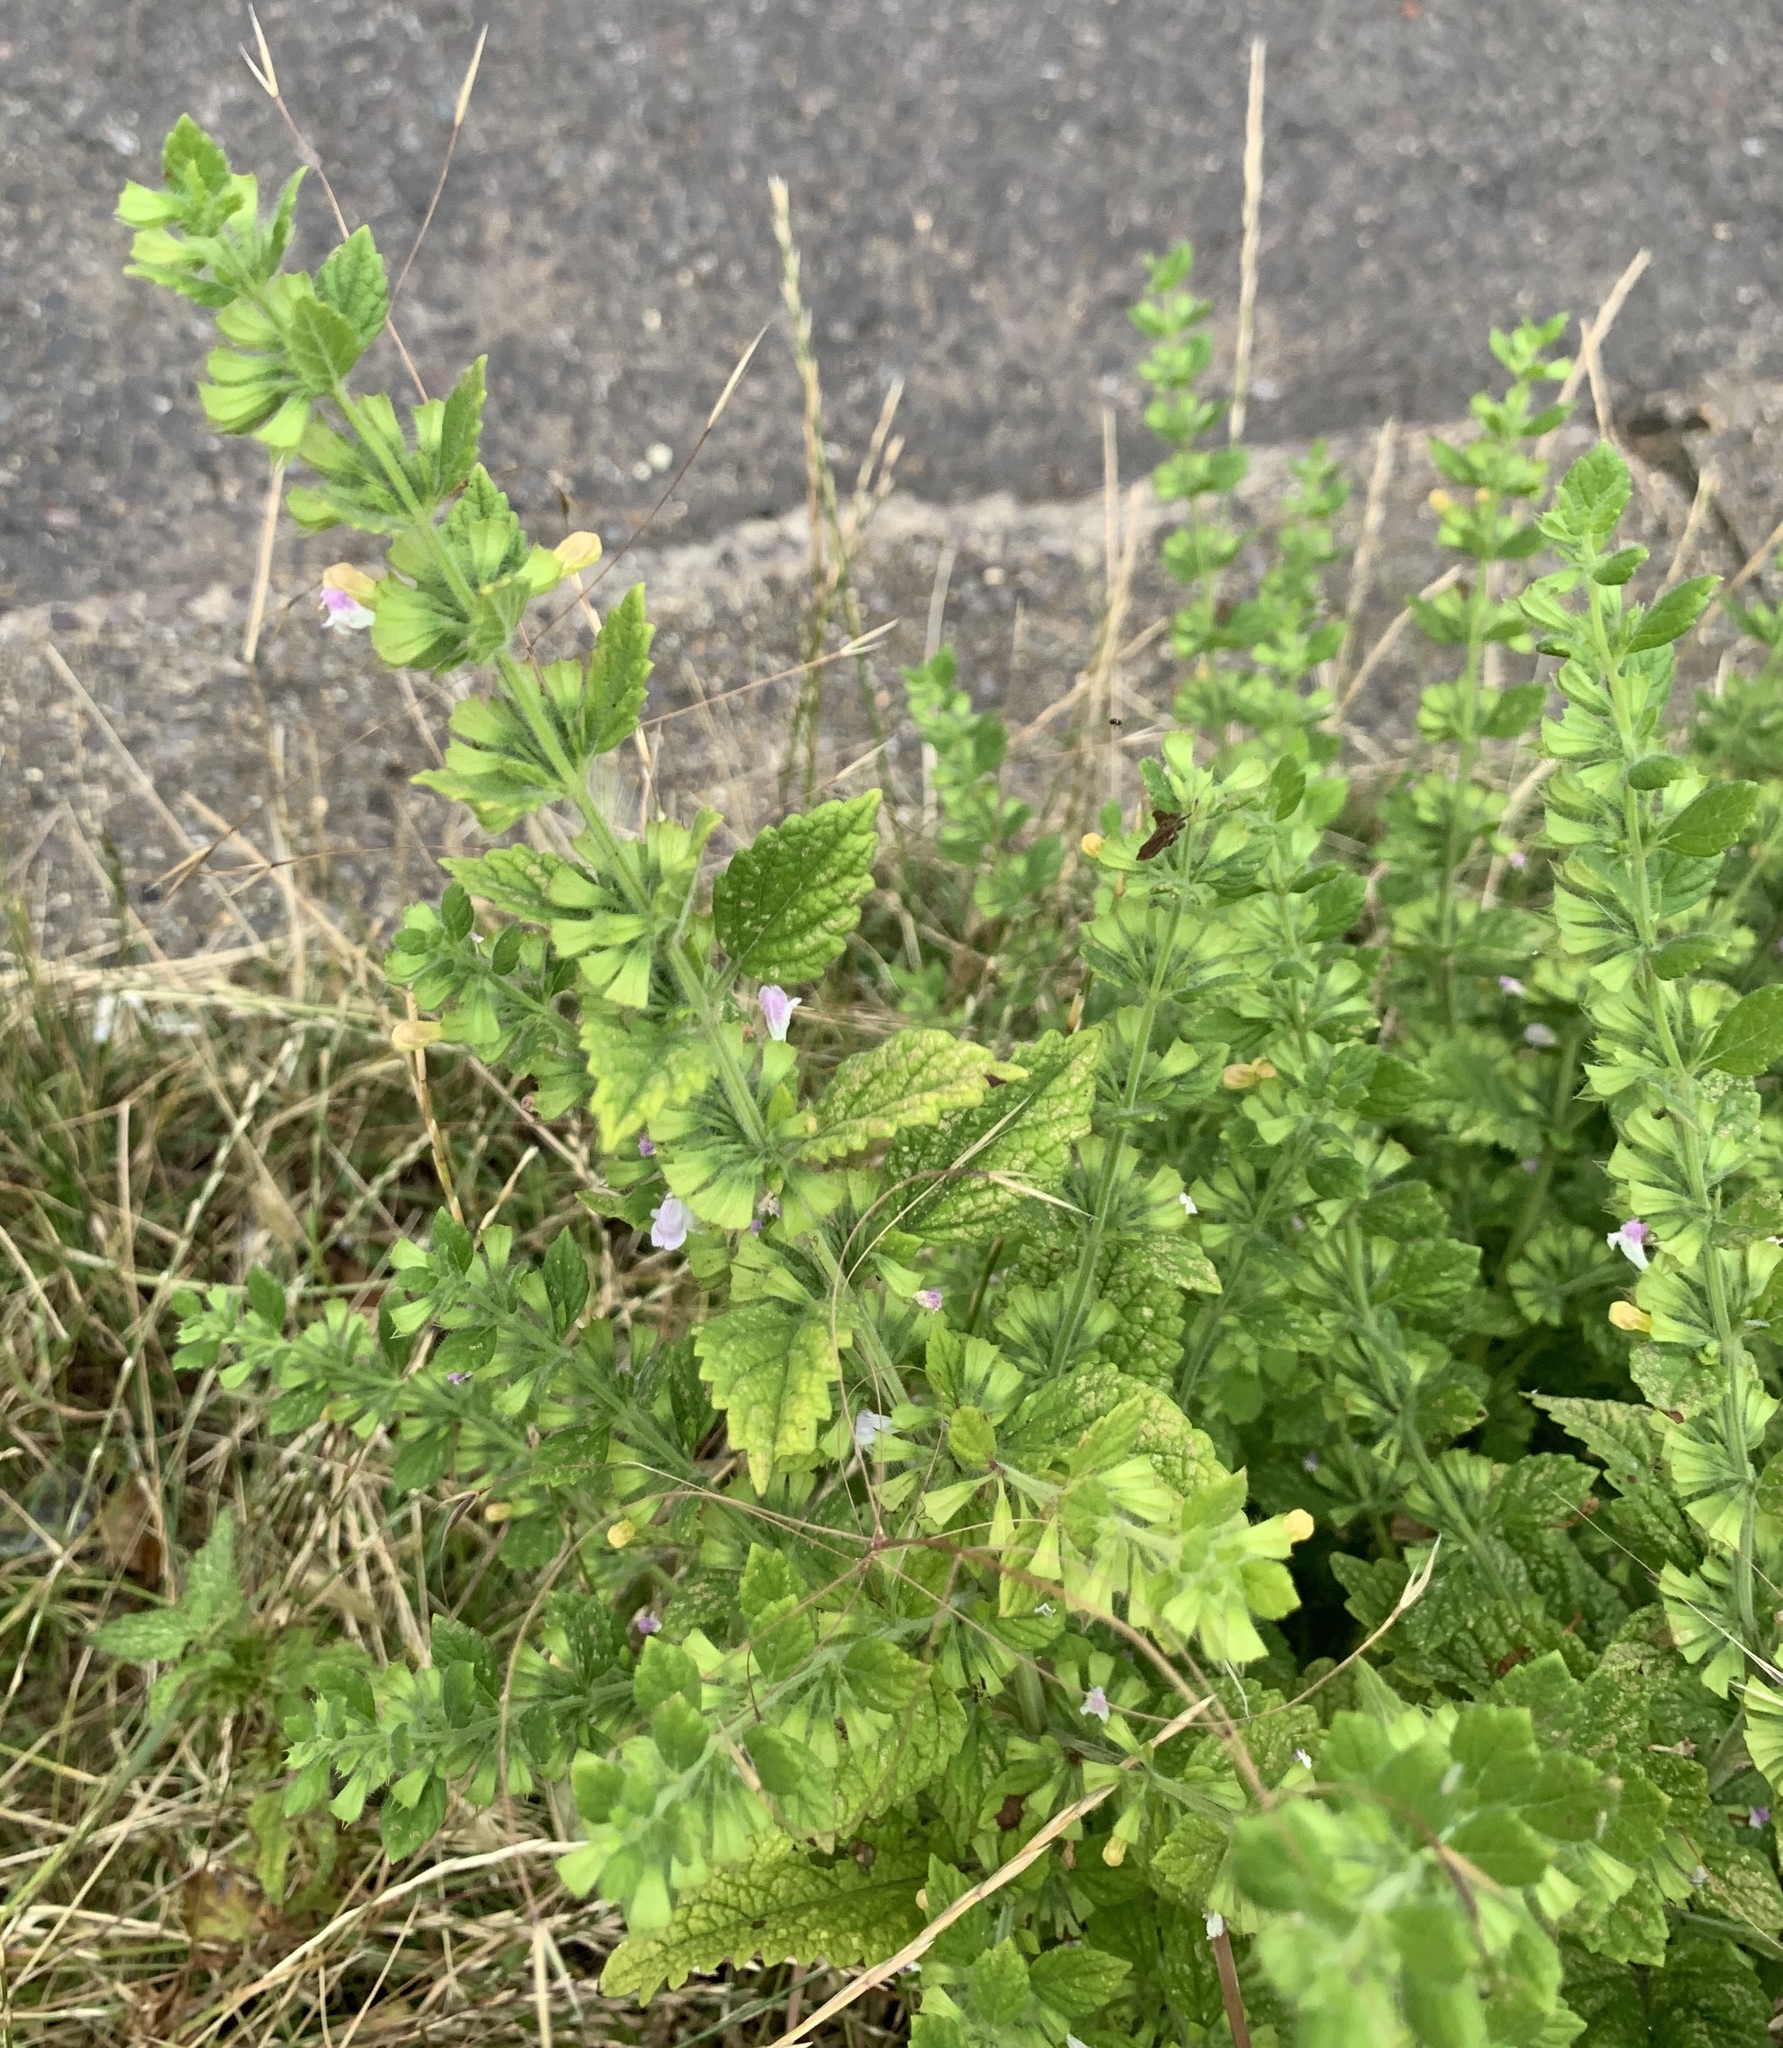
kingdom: Plantae
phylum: Tracheophyta
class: Magnoliopsida
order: Lamiales
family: Lamiaceae
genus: Melissa
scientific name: Melissa officinalis
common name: Balm
